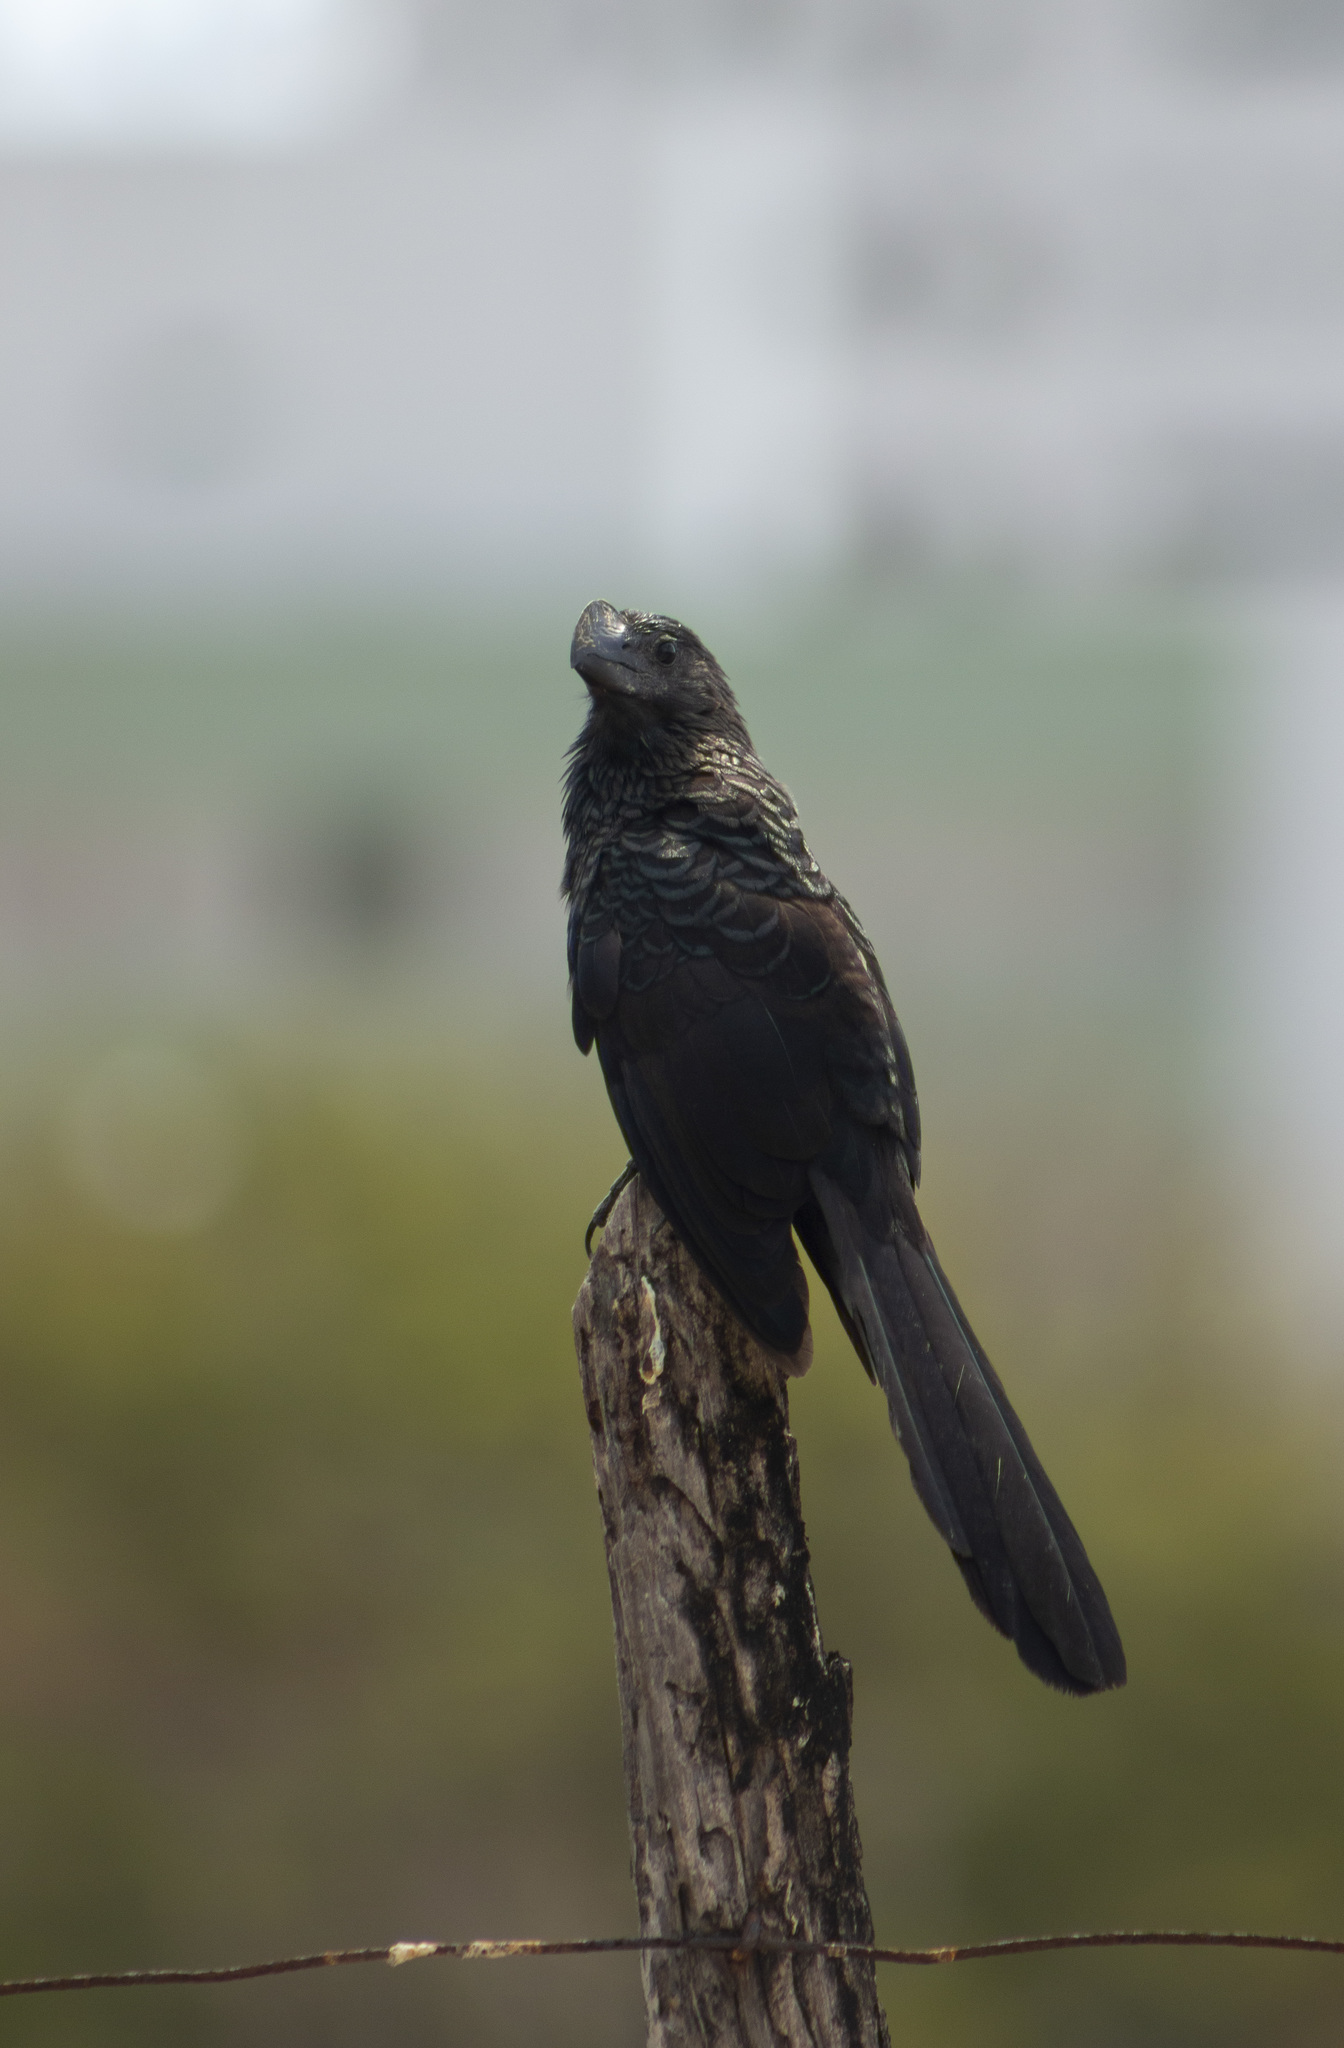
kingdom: Animalia
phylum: Chordata
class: Aves
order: Cuculiformes
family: Cuculidae
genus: Crotophaga
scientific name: Crotophaga ani
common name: Smooth-billed ani
